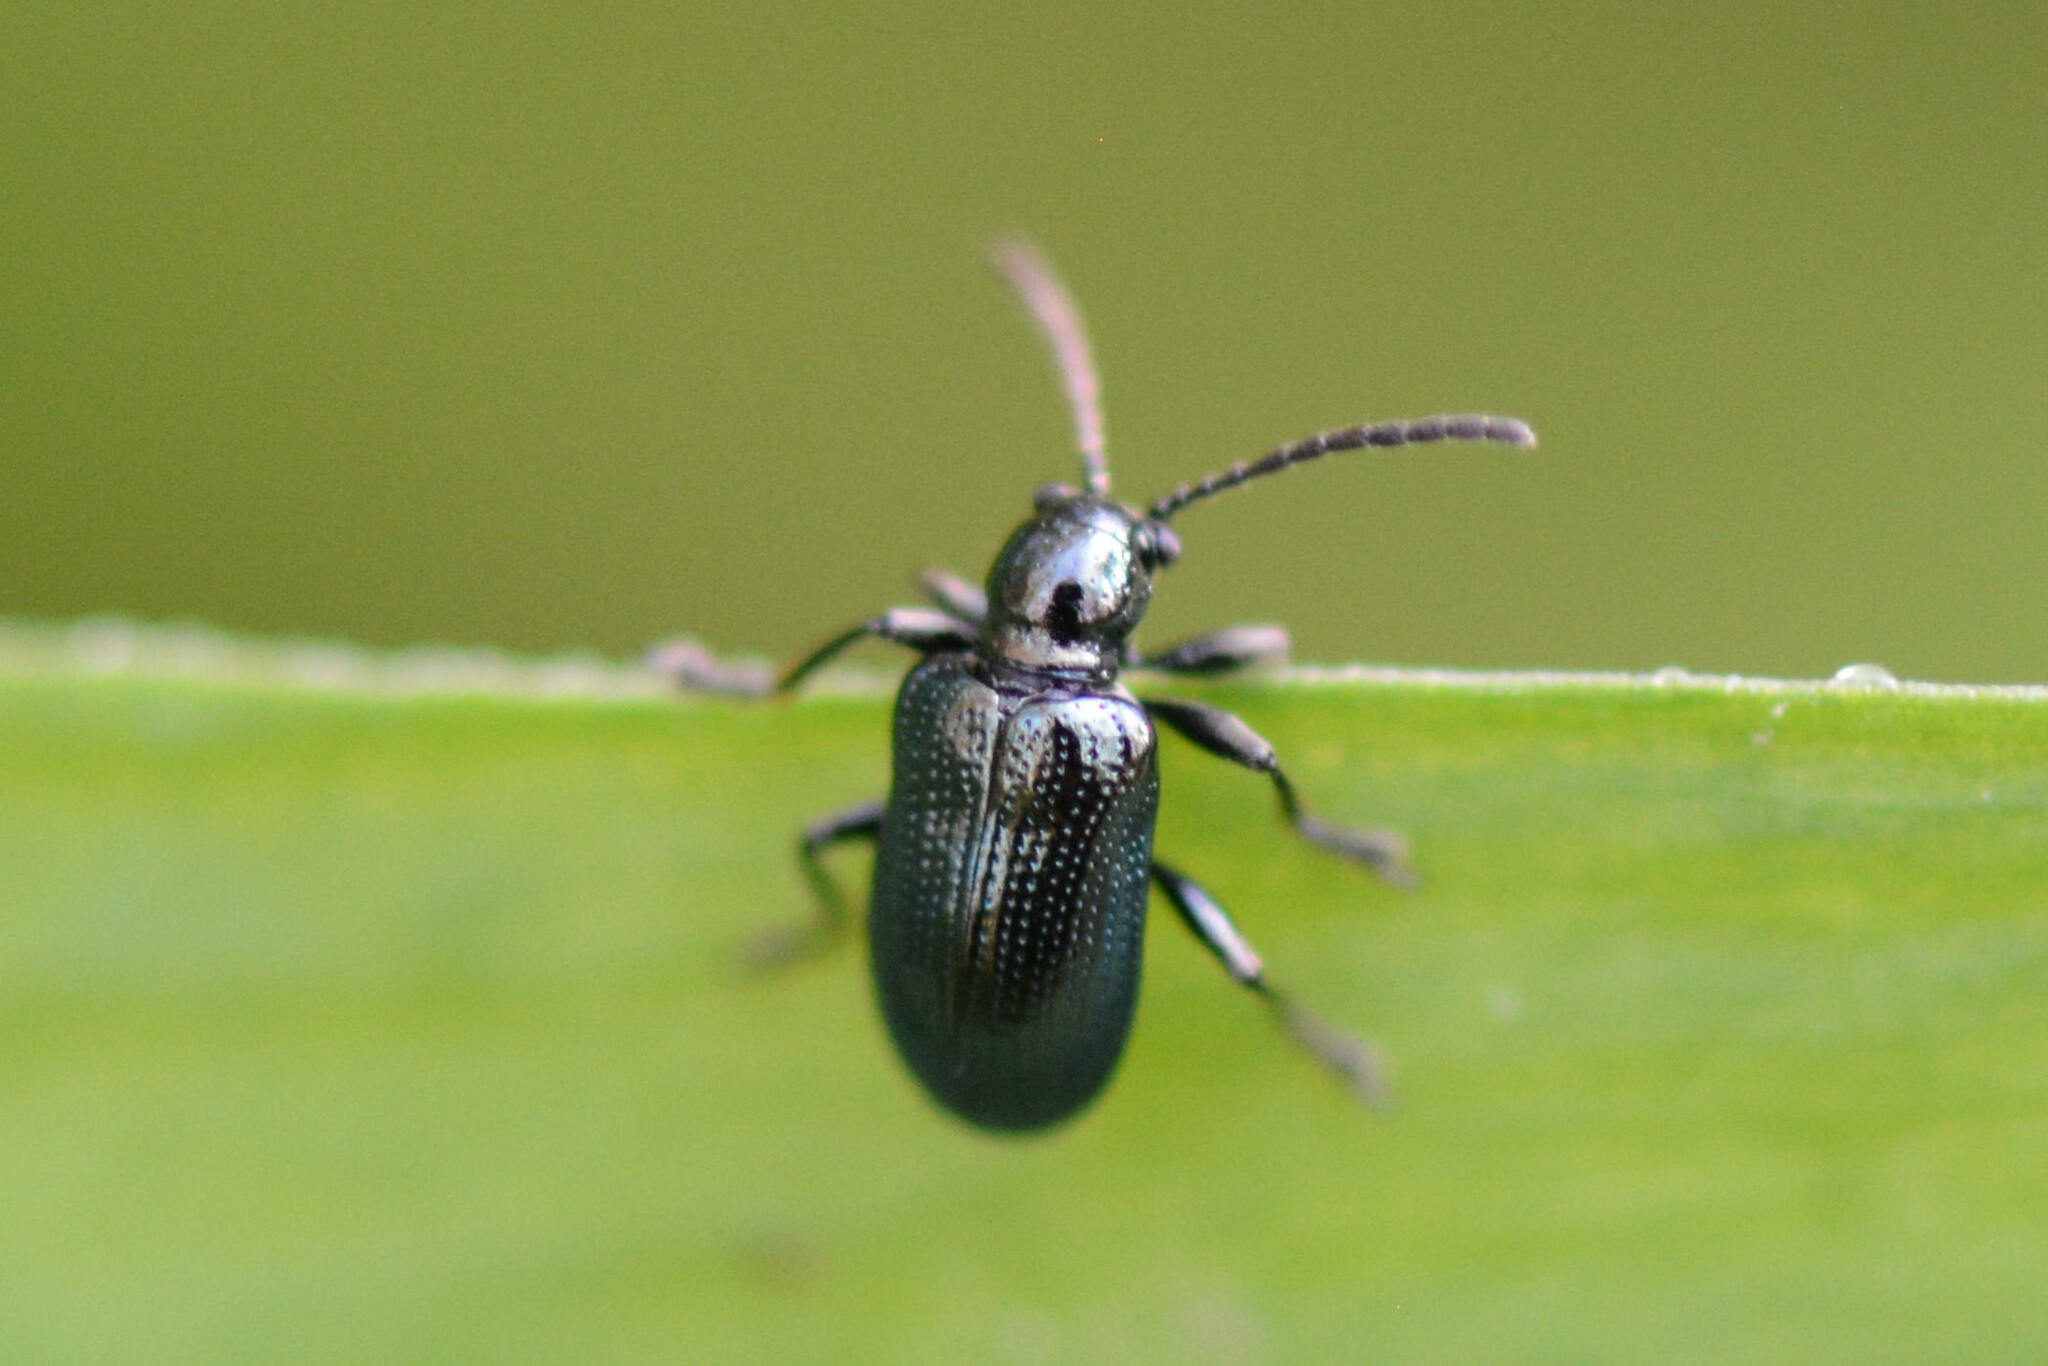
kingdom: Animalia
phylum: Arthropoda
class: Insecta
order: Coleoptera
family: Chrysomelidae
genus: Oulema
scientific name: Oulema gallaeciana
